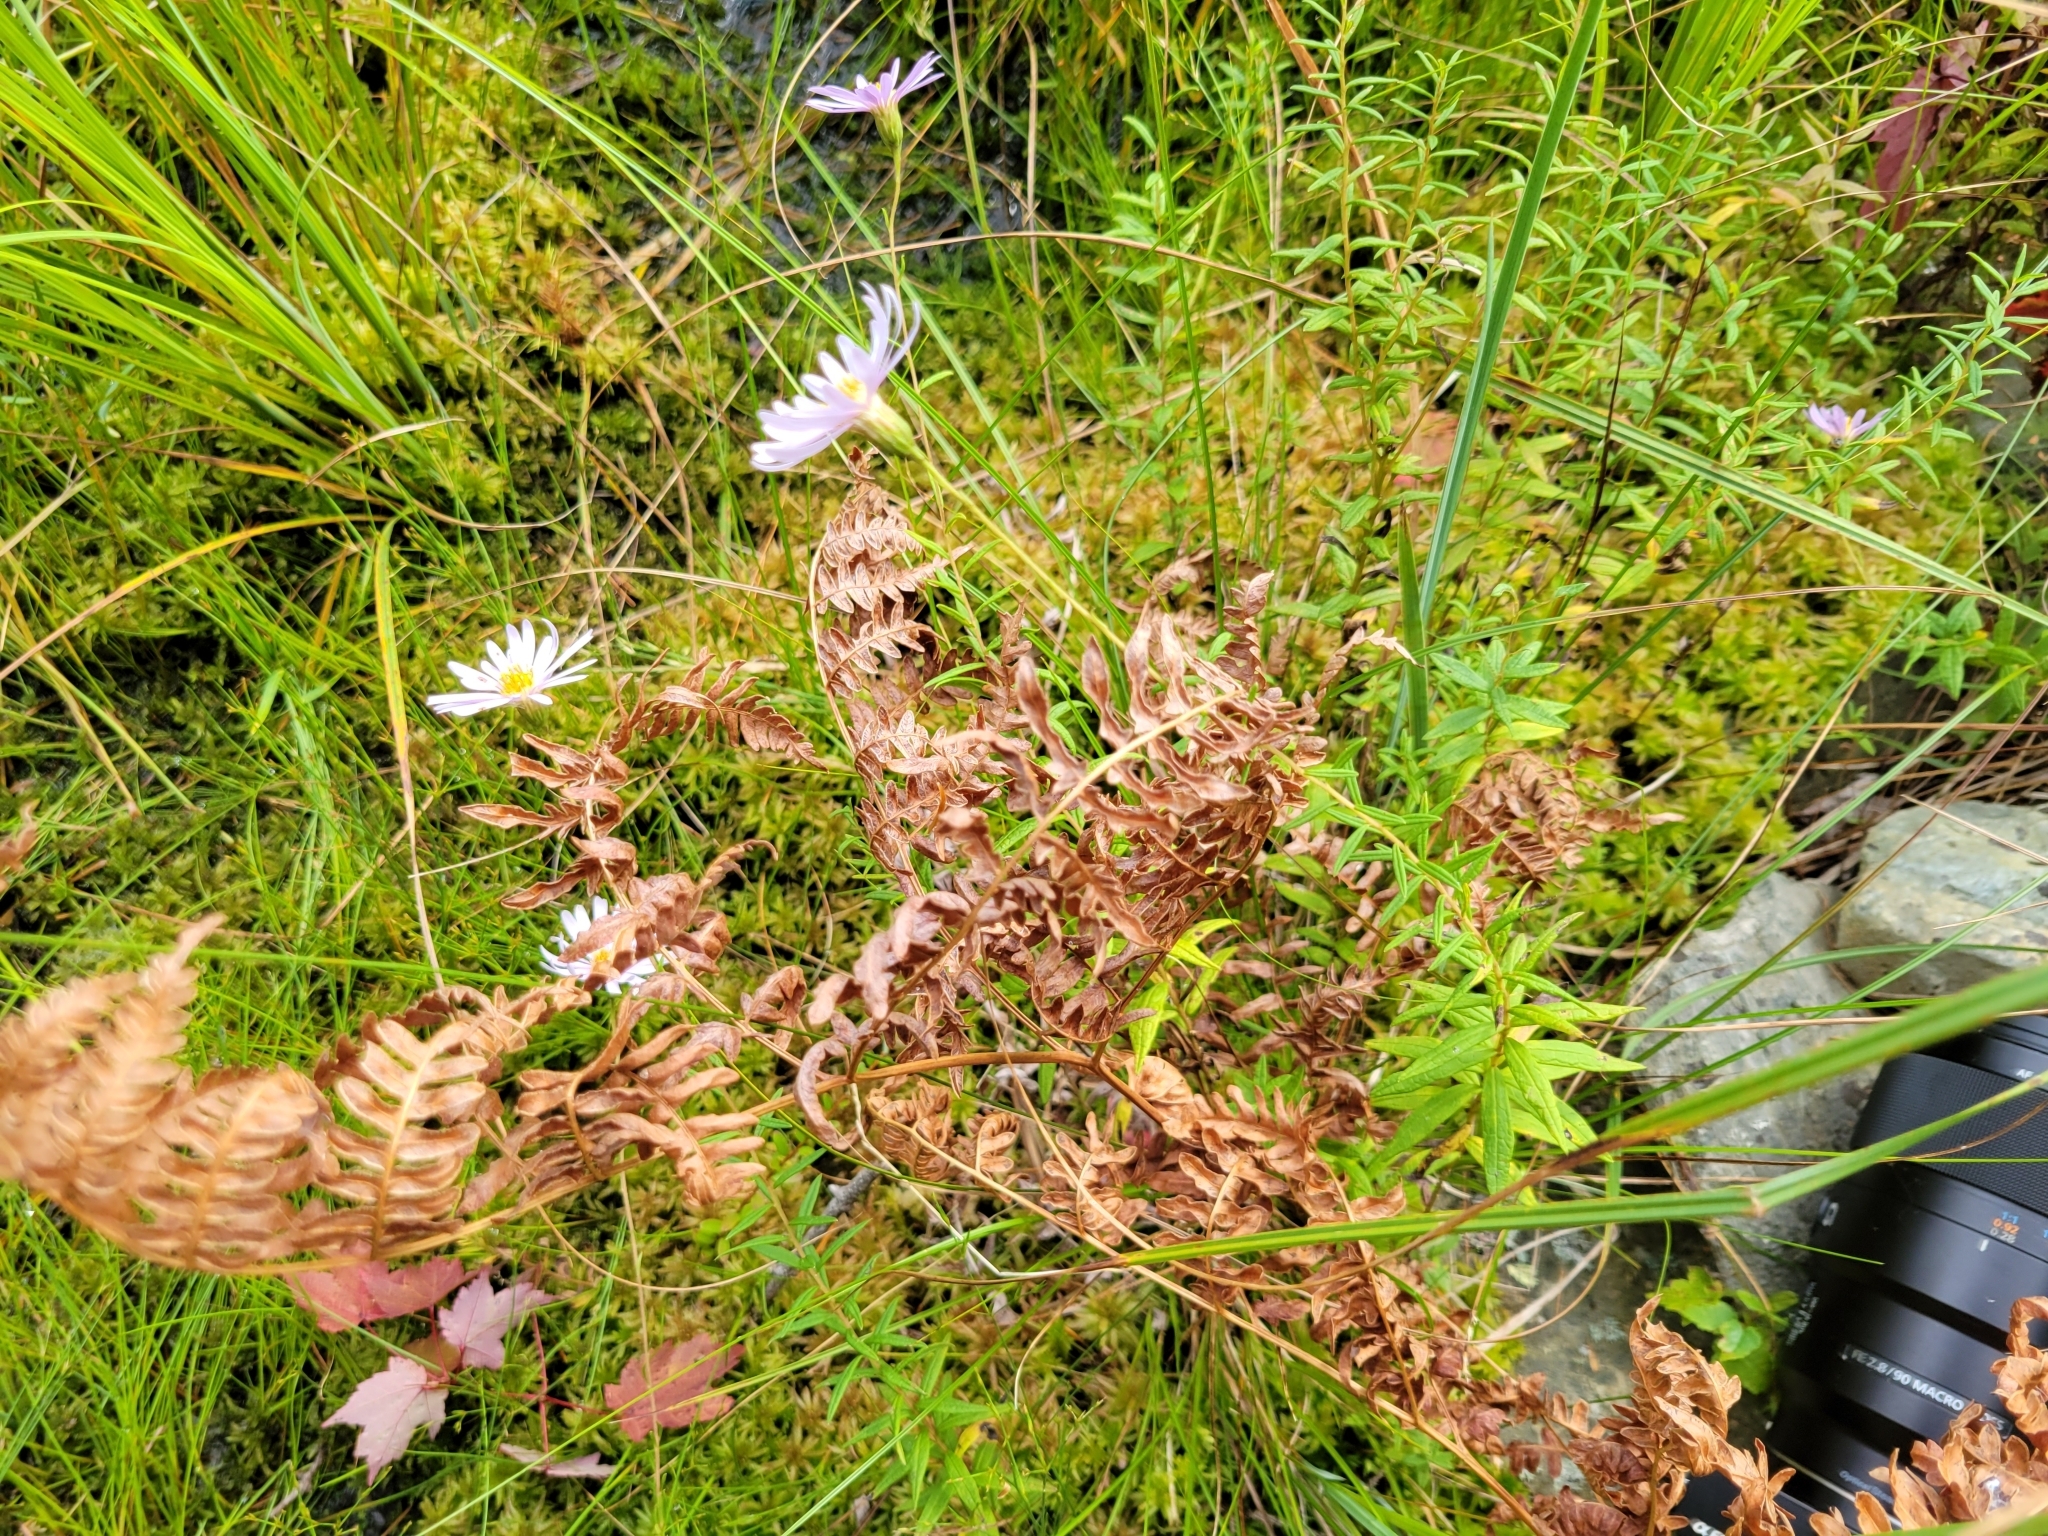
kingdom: Plantae
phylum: Tracheophyta
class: Magnoliopsida
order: Asterales
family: Asteraceae
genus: Oclemena
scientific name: Oclemena nemoralis
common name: Bog aster
